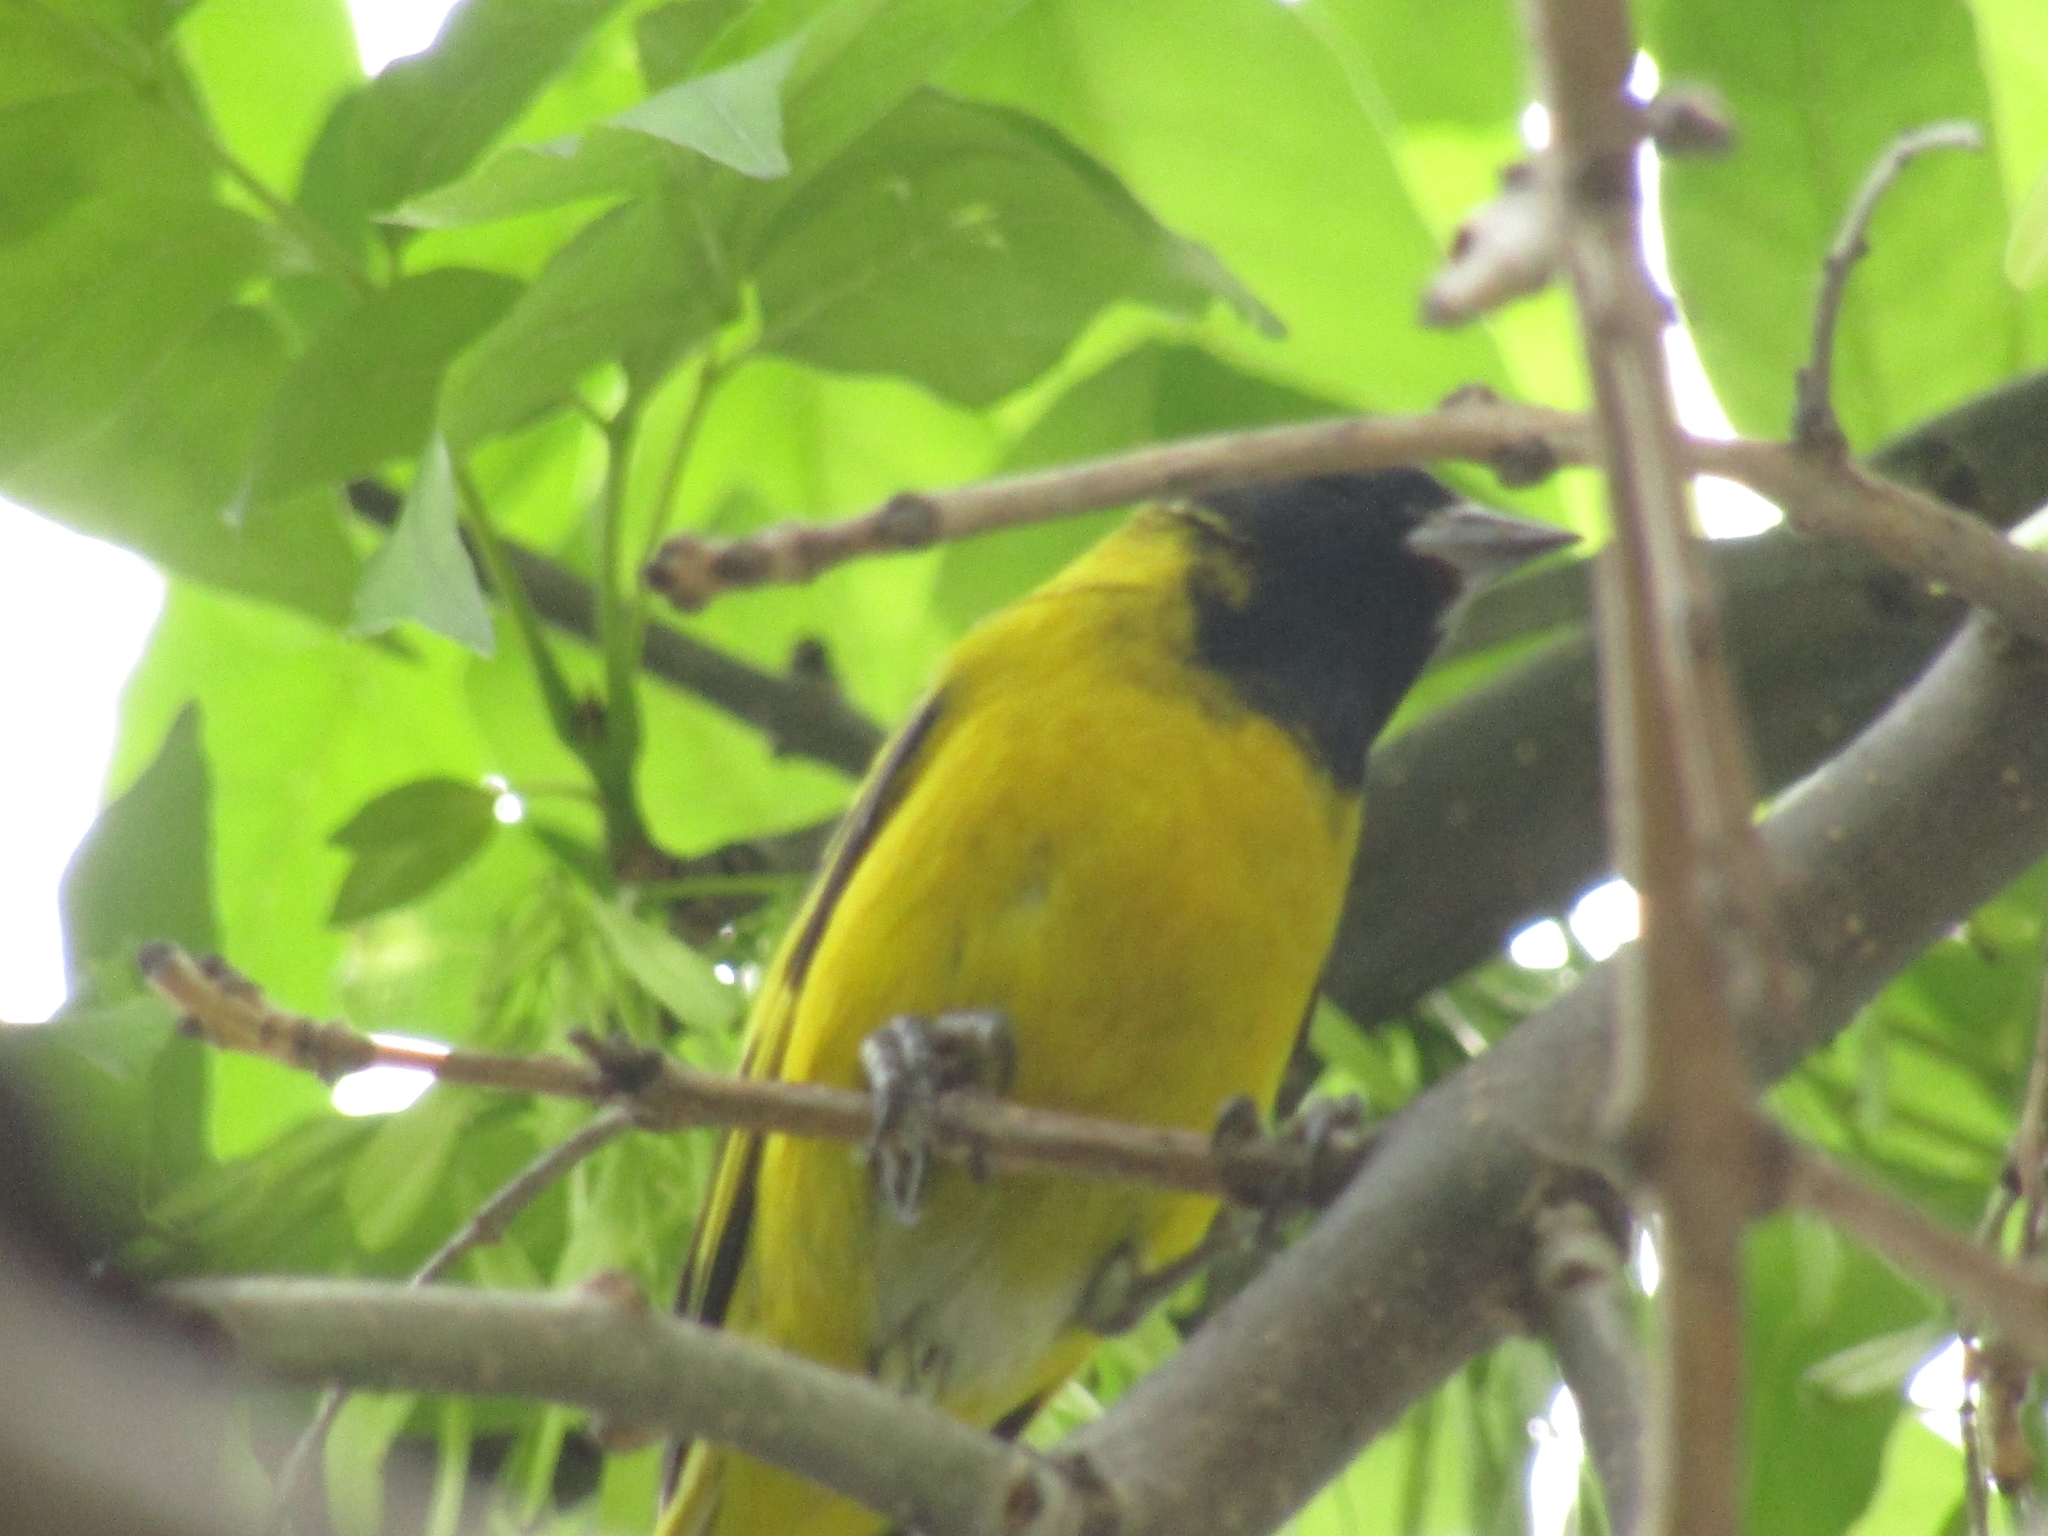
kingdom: Animalia
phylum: Chordata
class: Aves
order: Passeriformes
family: Fringillidae
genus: Spinus
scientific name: Spinus magellanicus
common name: Hooded siskin
